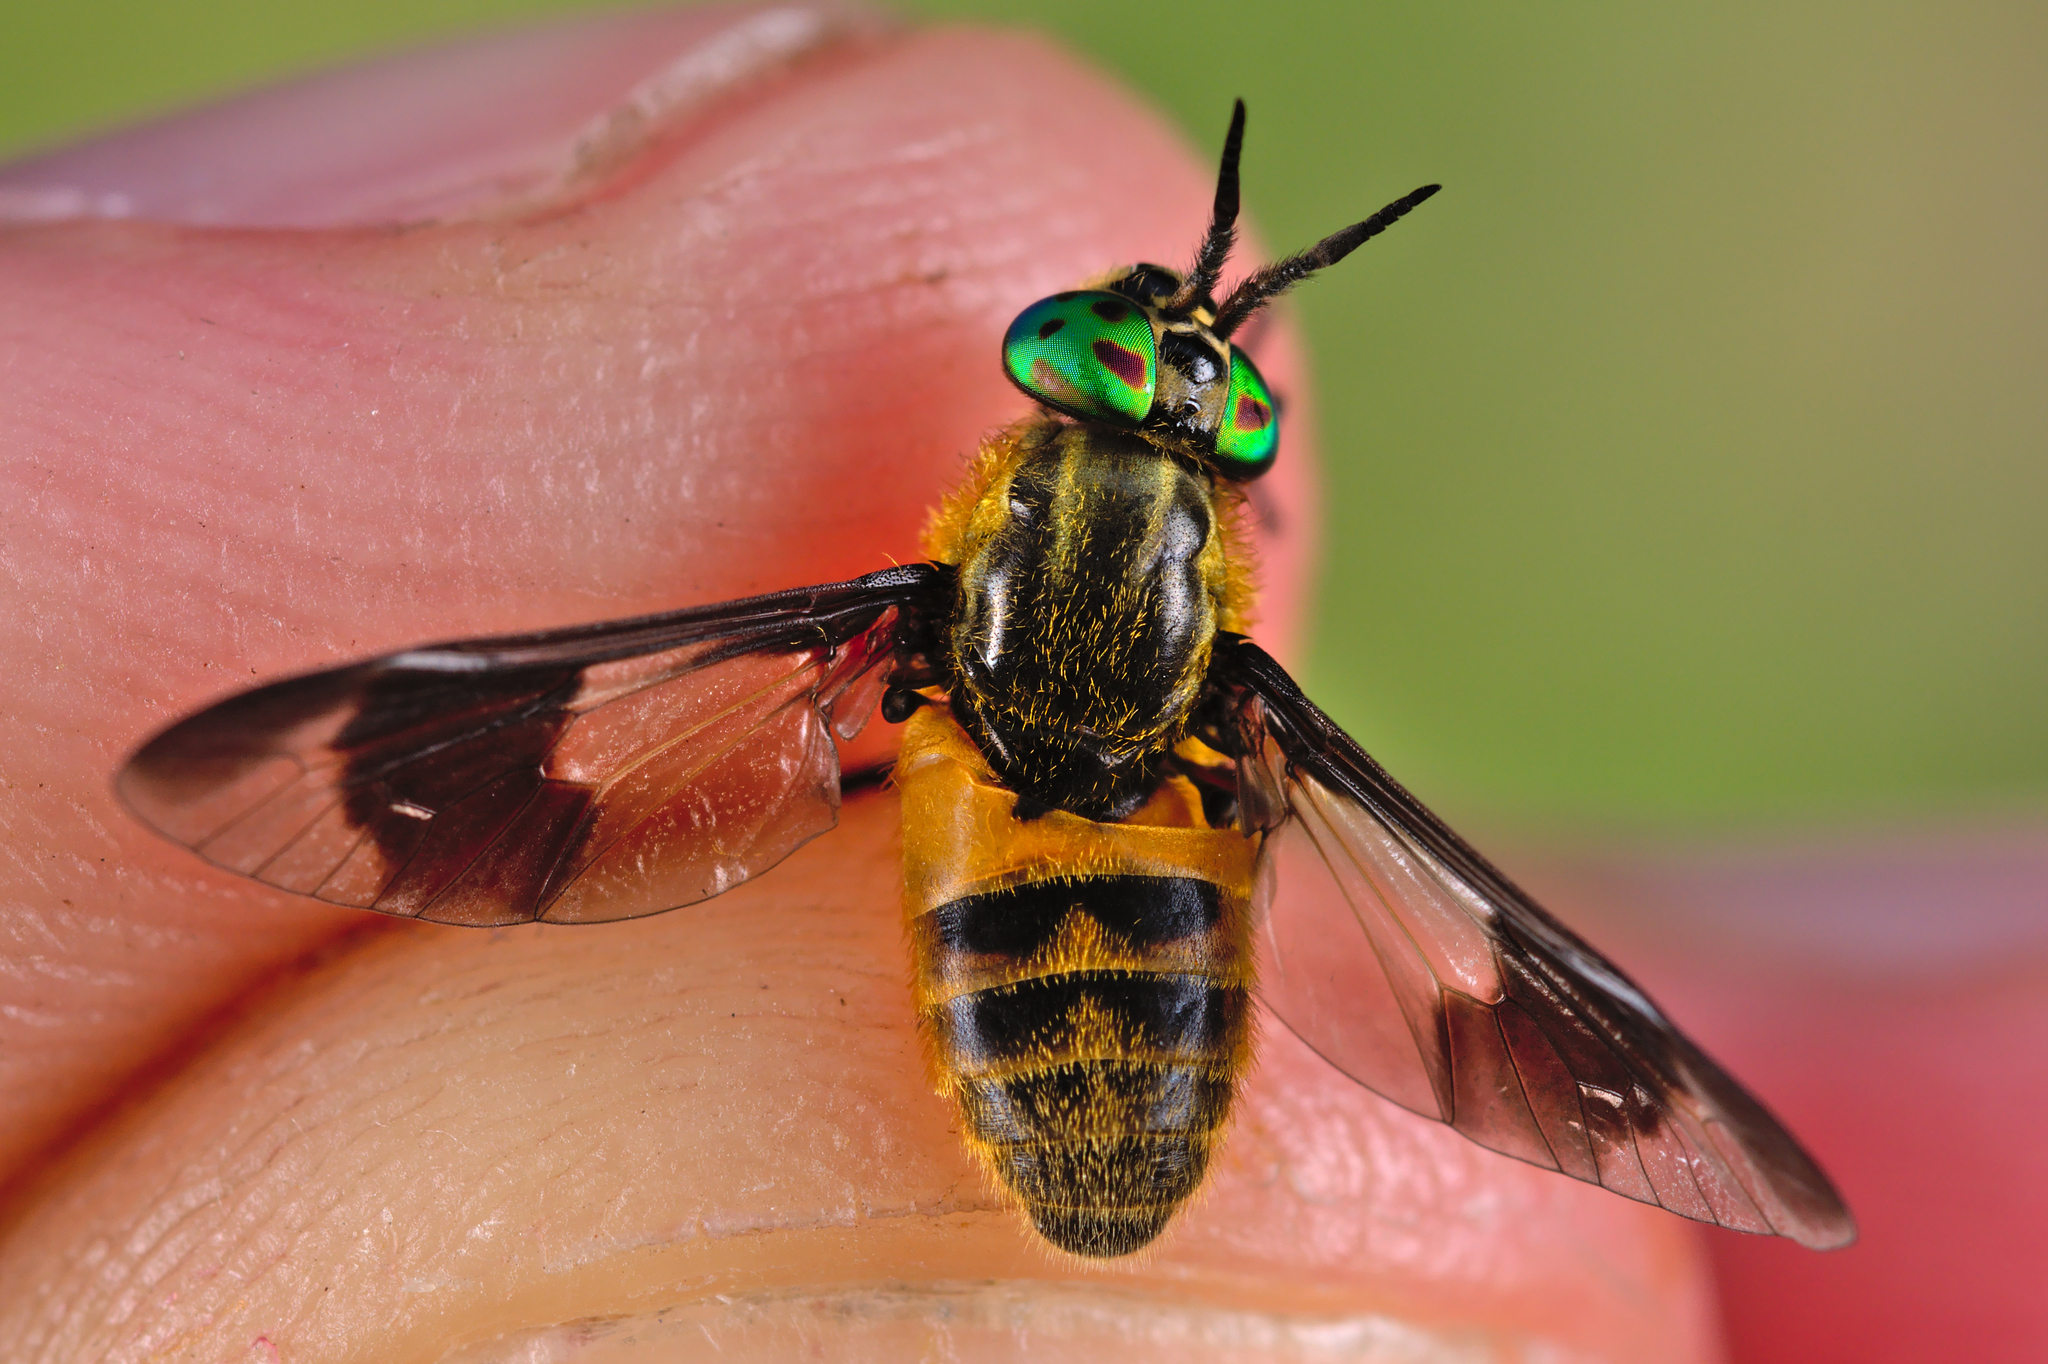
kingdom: Animalia
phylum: Arthropoda
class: Insecta
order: Diptera
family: Tabanidae
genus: Chrysops
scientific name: Chrysops relictus
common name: Twin-lobed deerfly
